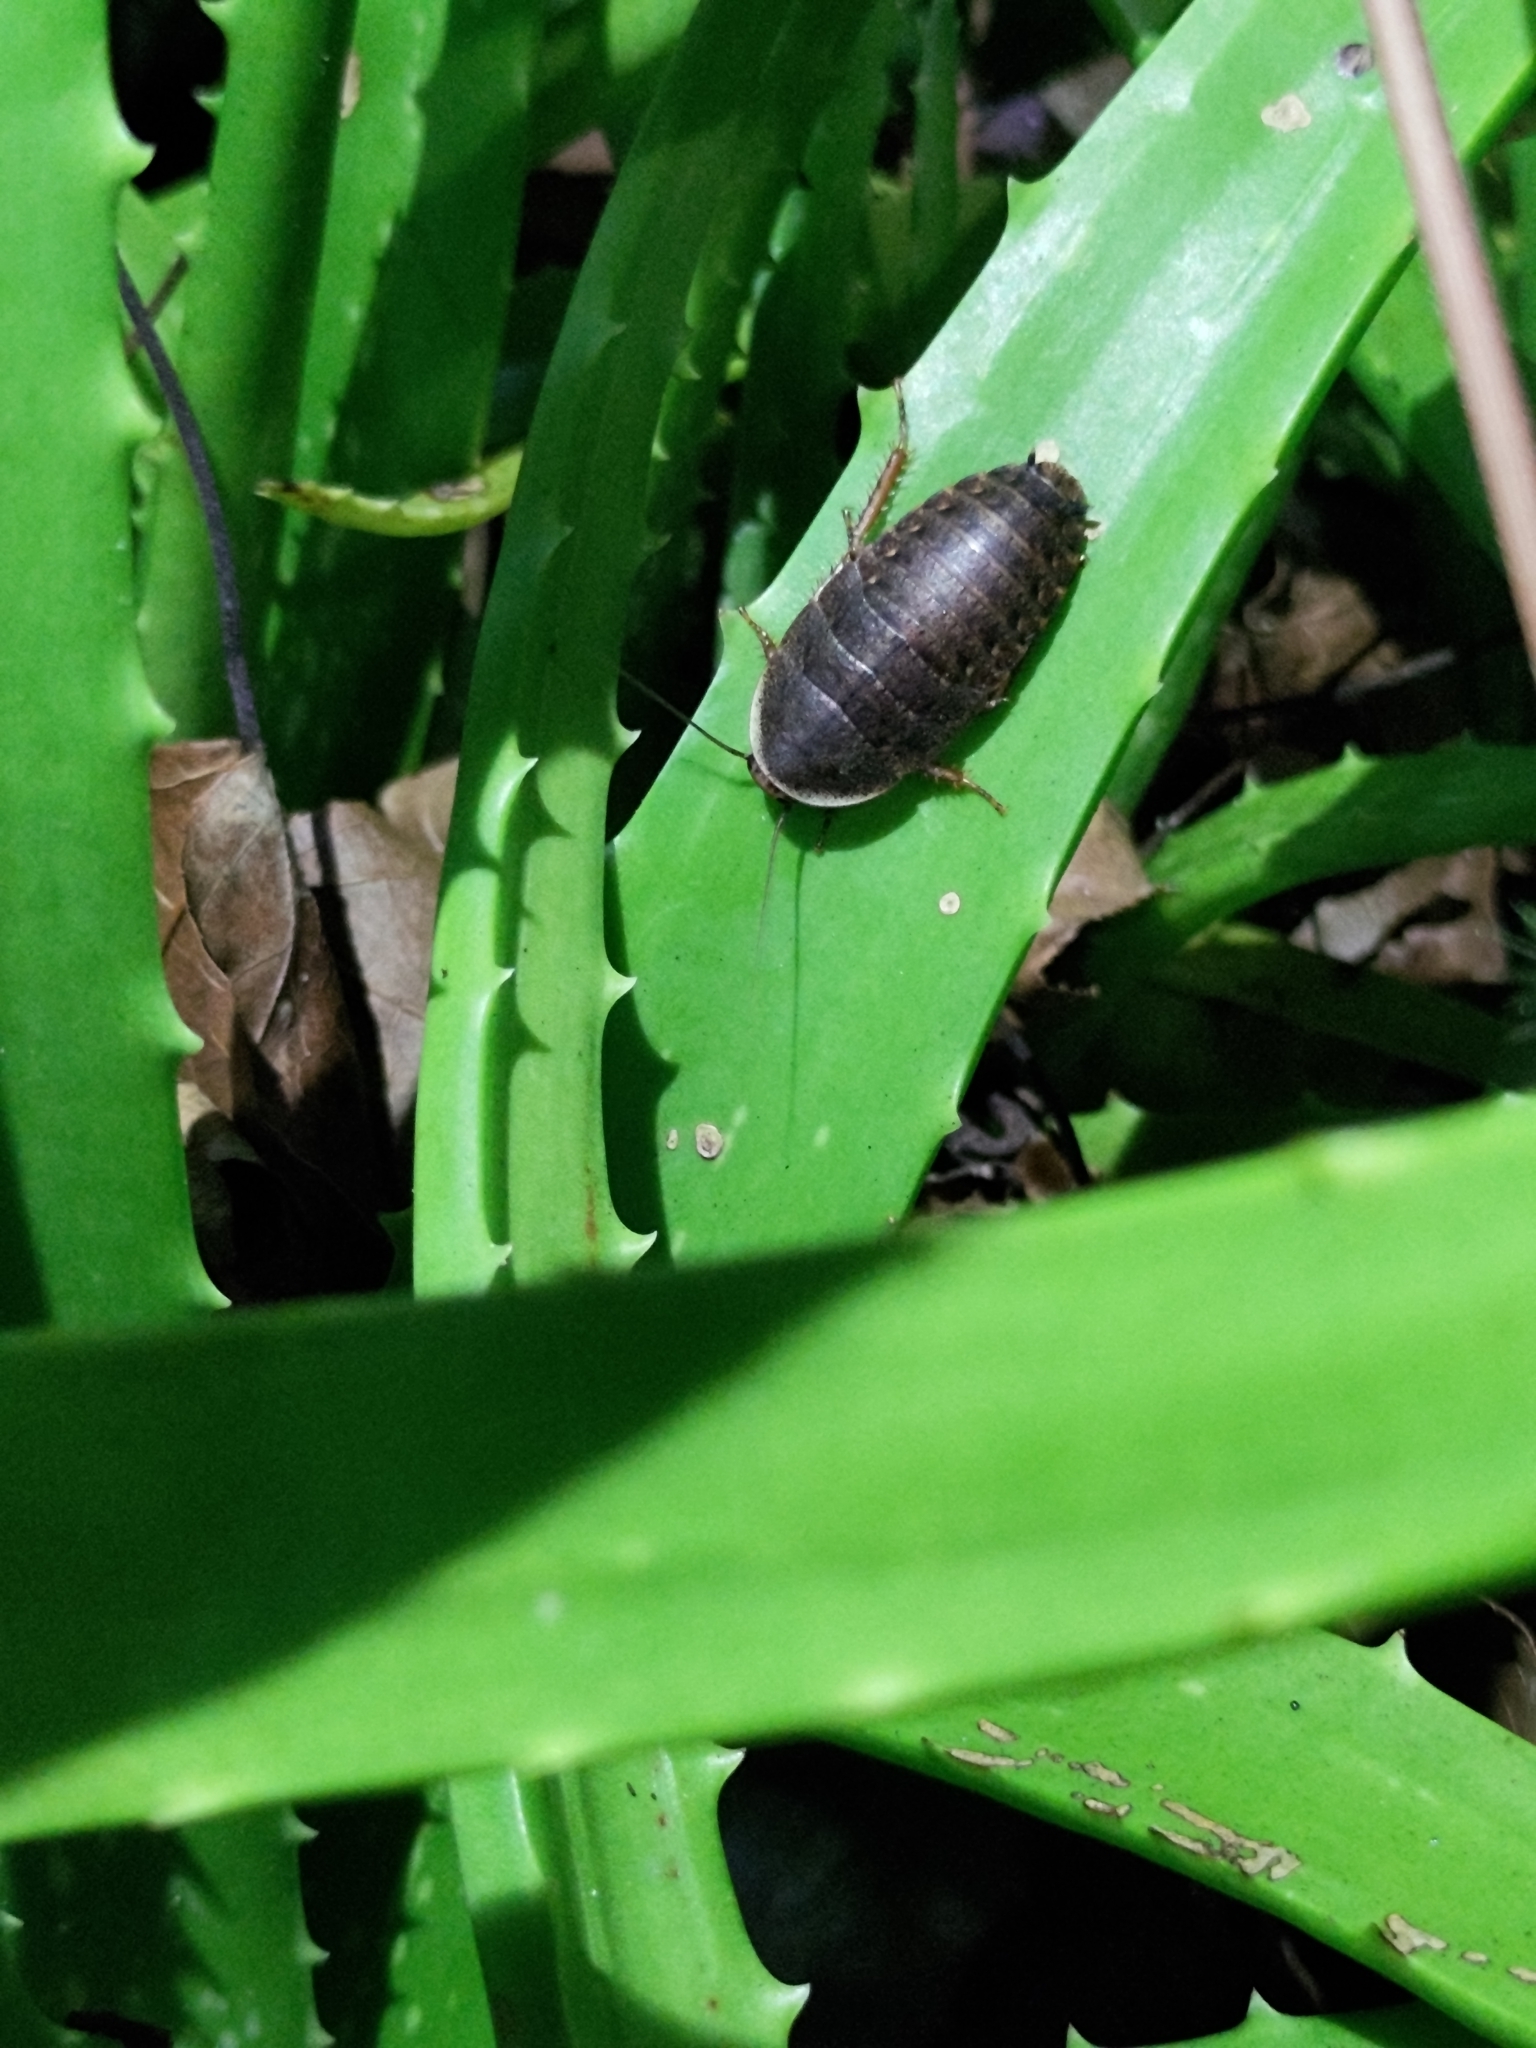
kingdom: Animalia
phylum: Arthropoda
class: Insecta
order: Blattodea
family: Blaberidae
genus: Opisthoplatia
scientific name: Opisthoplatia orientalis
